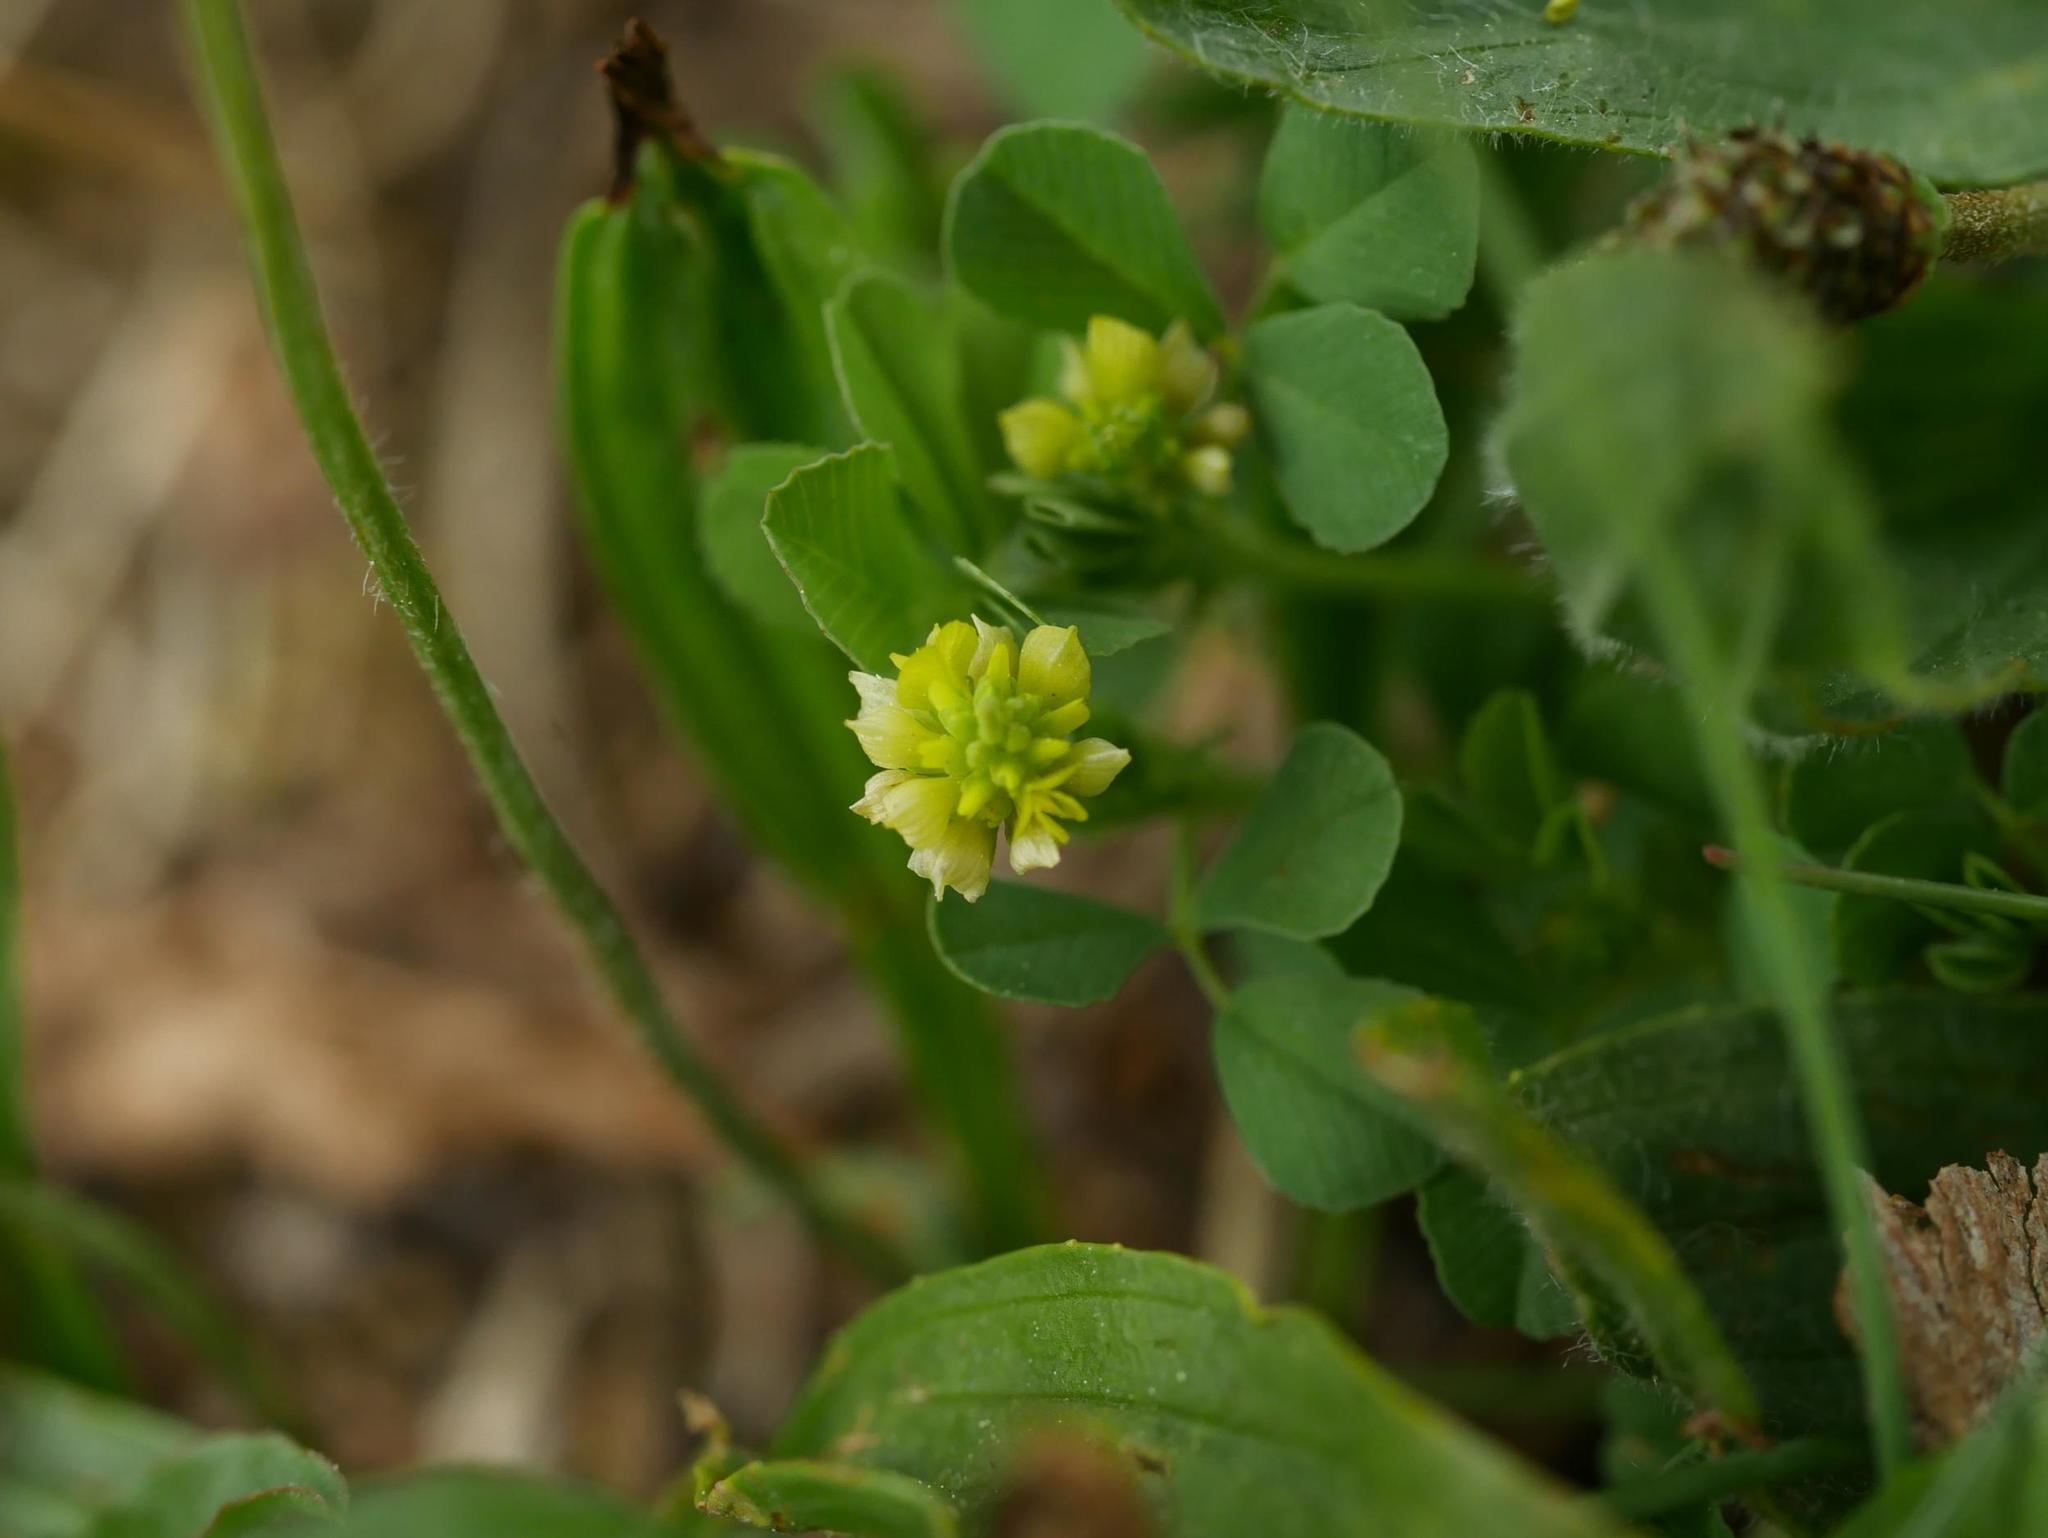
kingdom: Plantae
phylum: Tracheophyta
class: Magnoliopsida
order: Fabales
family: Fabaceae
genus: Trifolium
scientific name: Trifolium campestre
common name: Field clover
